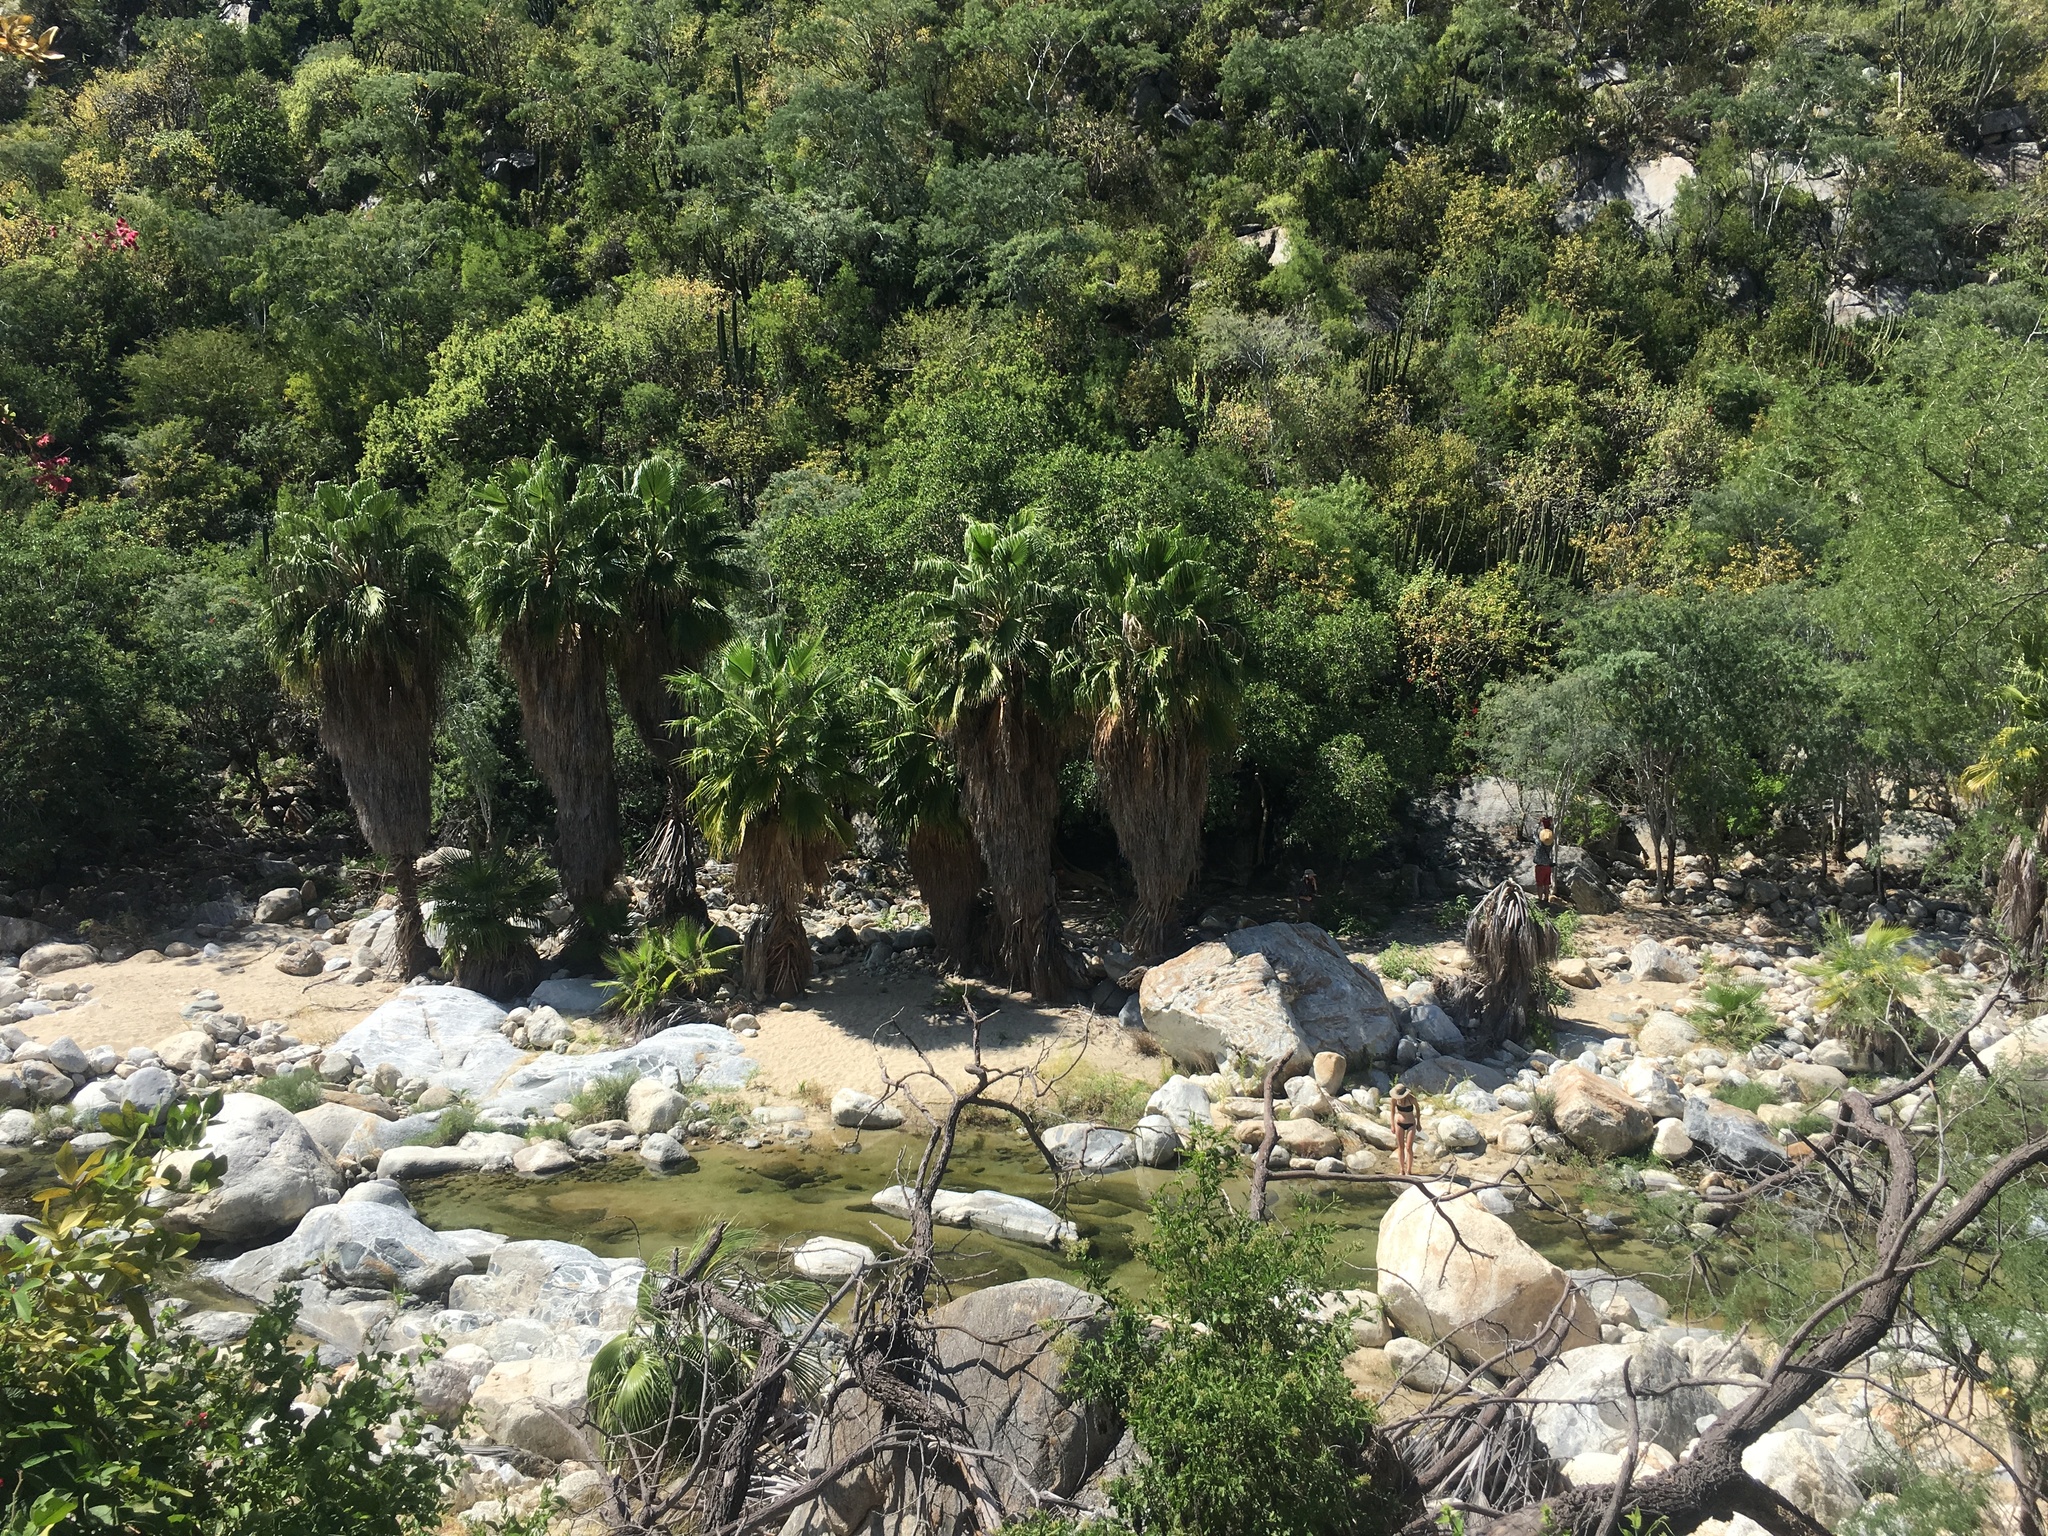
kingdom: Plantae
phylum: Tracheophyta
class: Liliopsida
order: Arecales
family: Arecaceae
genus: Washingtonia
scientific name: Washingtonia robusta
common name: Mexican fan palm
